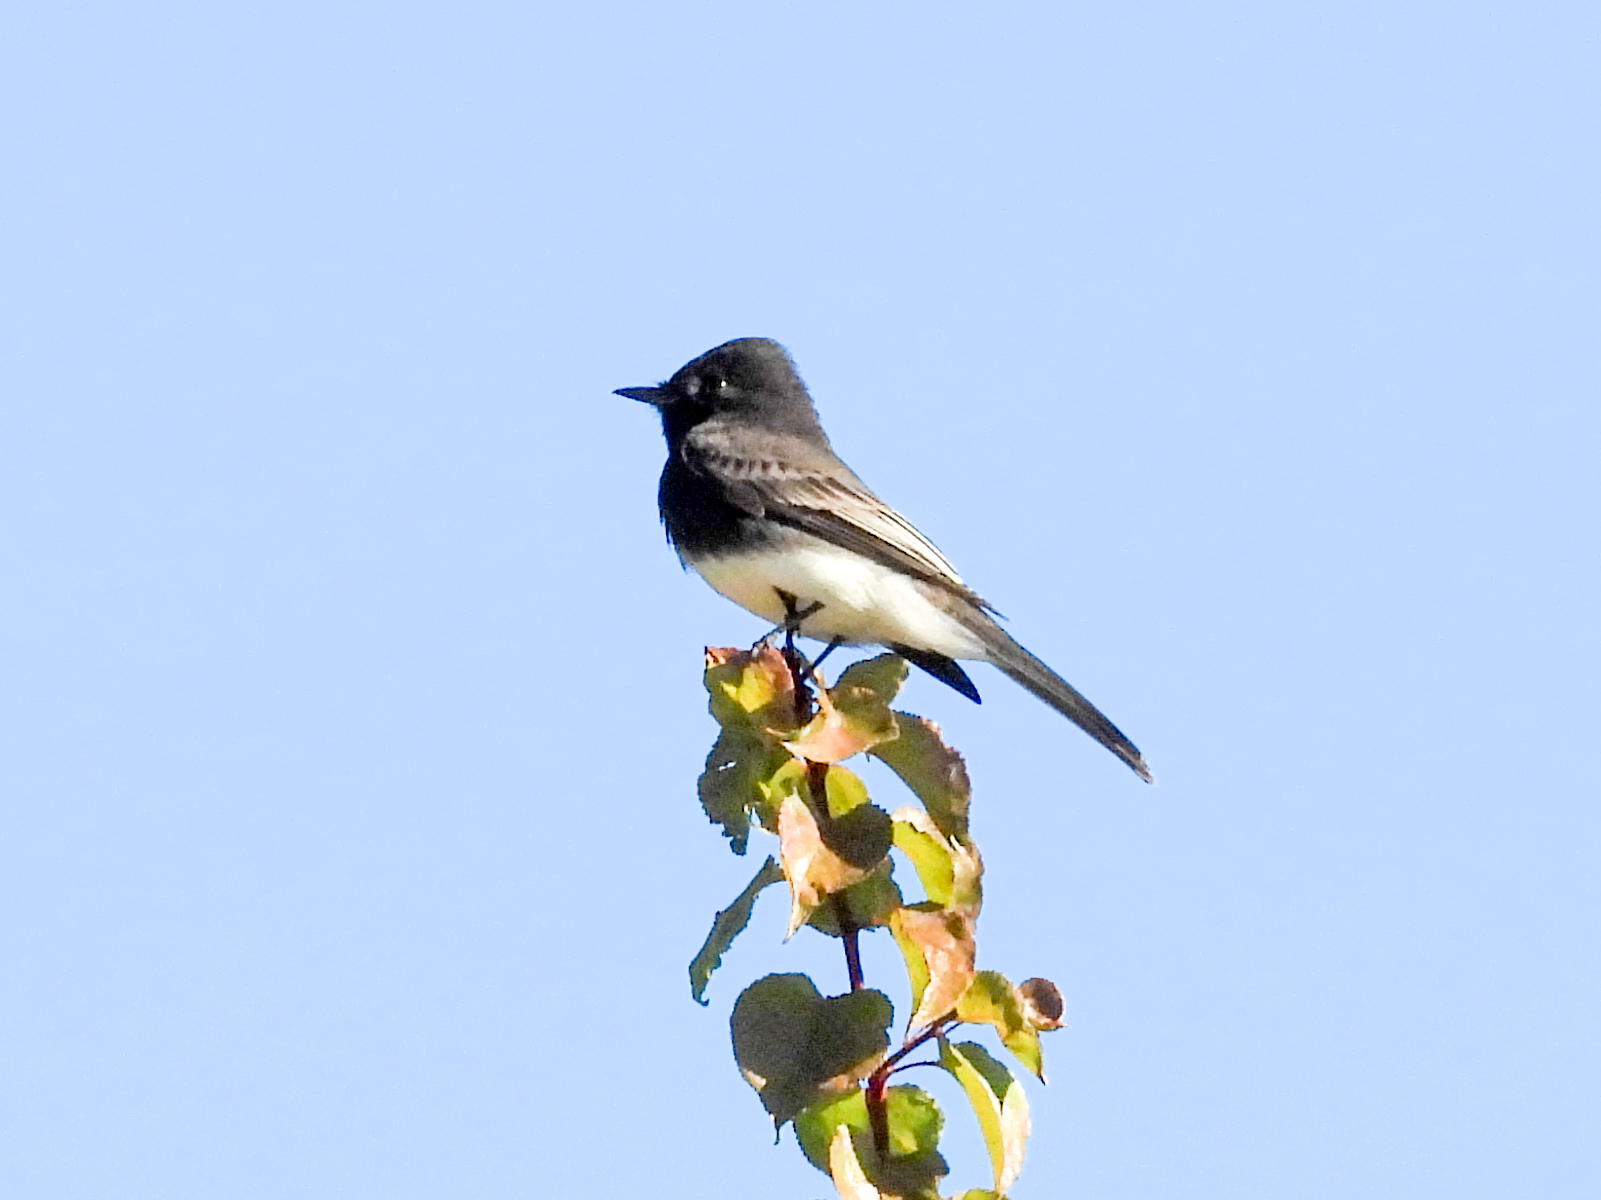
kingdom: Animalia
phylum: Chordata
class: Aves
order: Passeriformes
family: Tyrannidae
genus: Sayornis
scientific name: Sayornis nigricans
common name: Black phoebe
